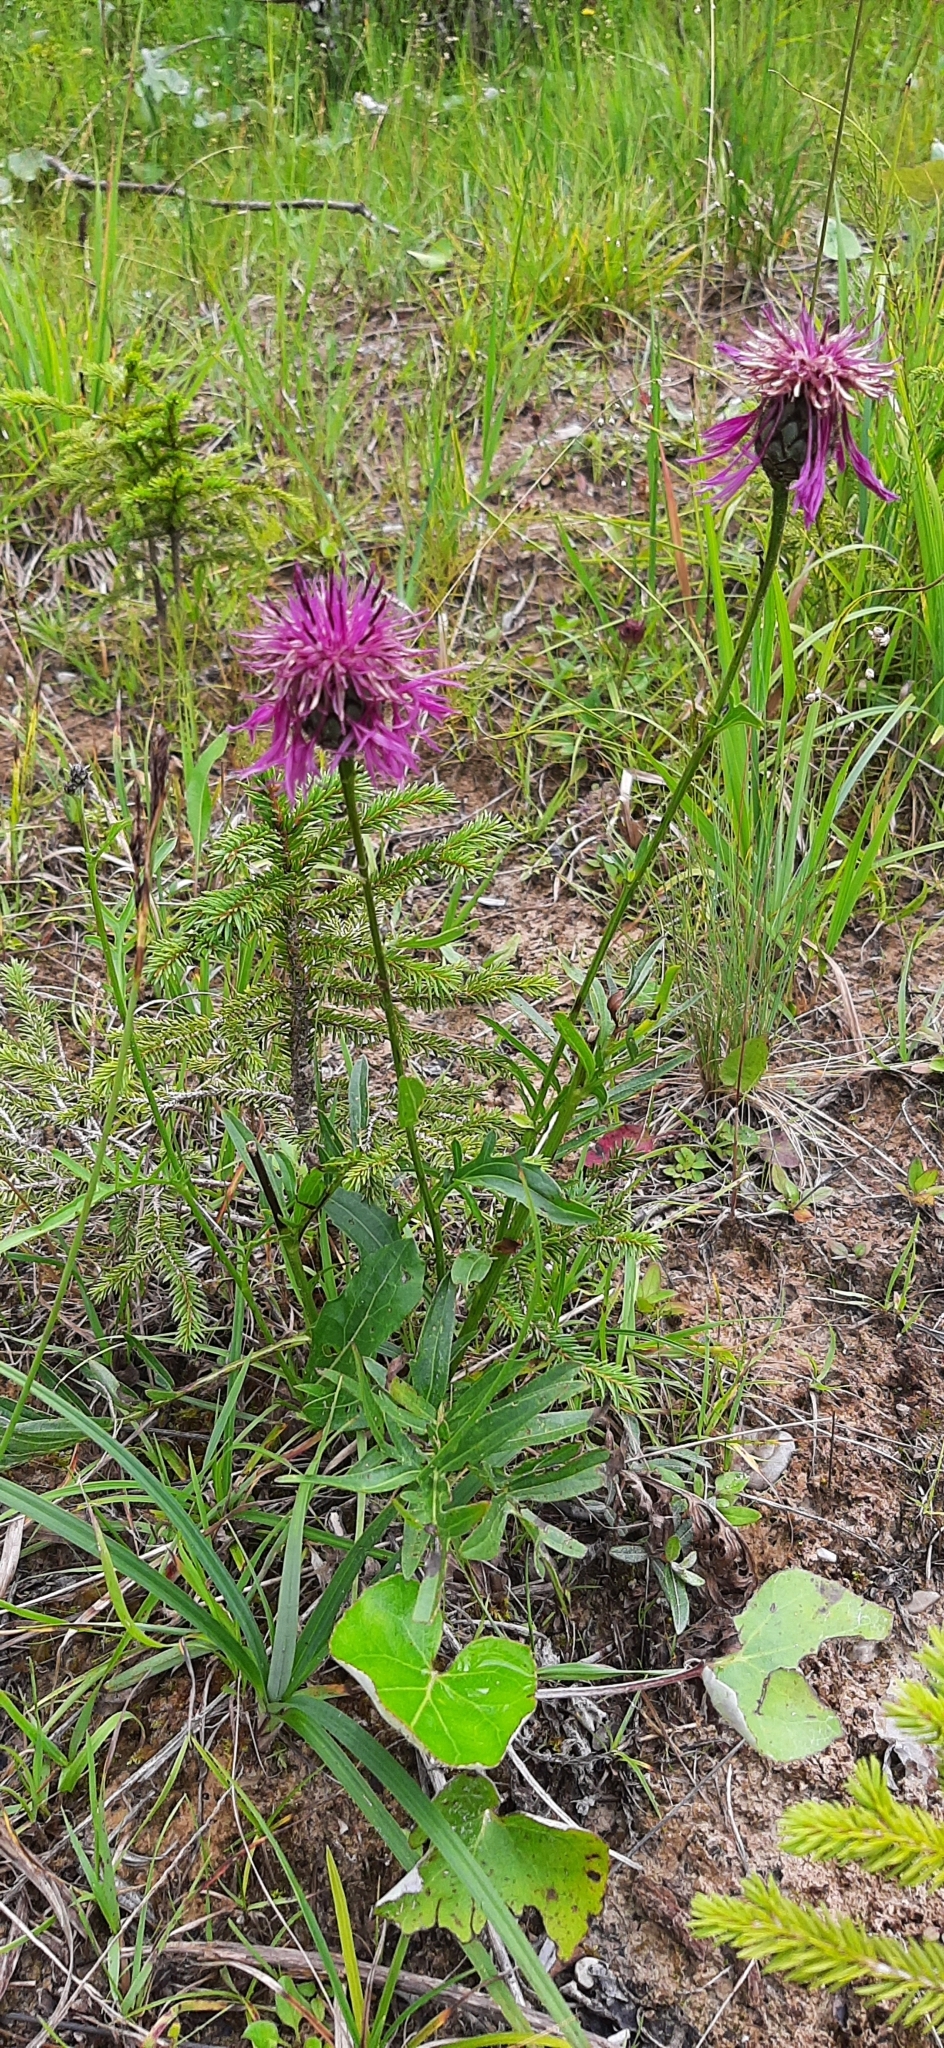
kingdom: Plantae
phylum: Tracheophyta
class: Magnoliopsida
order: Asterales
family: Asteraceae
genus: Centaurea
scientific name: Centaurea scabiosa
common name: Greater knapweed
